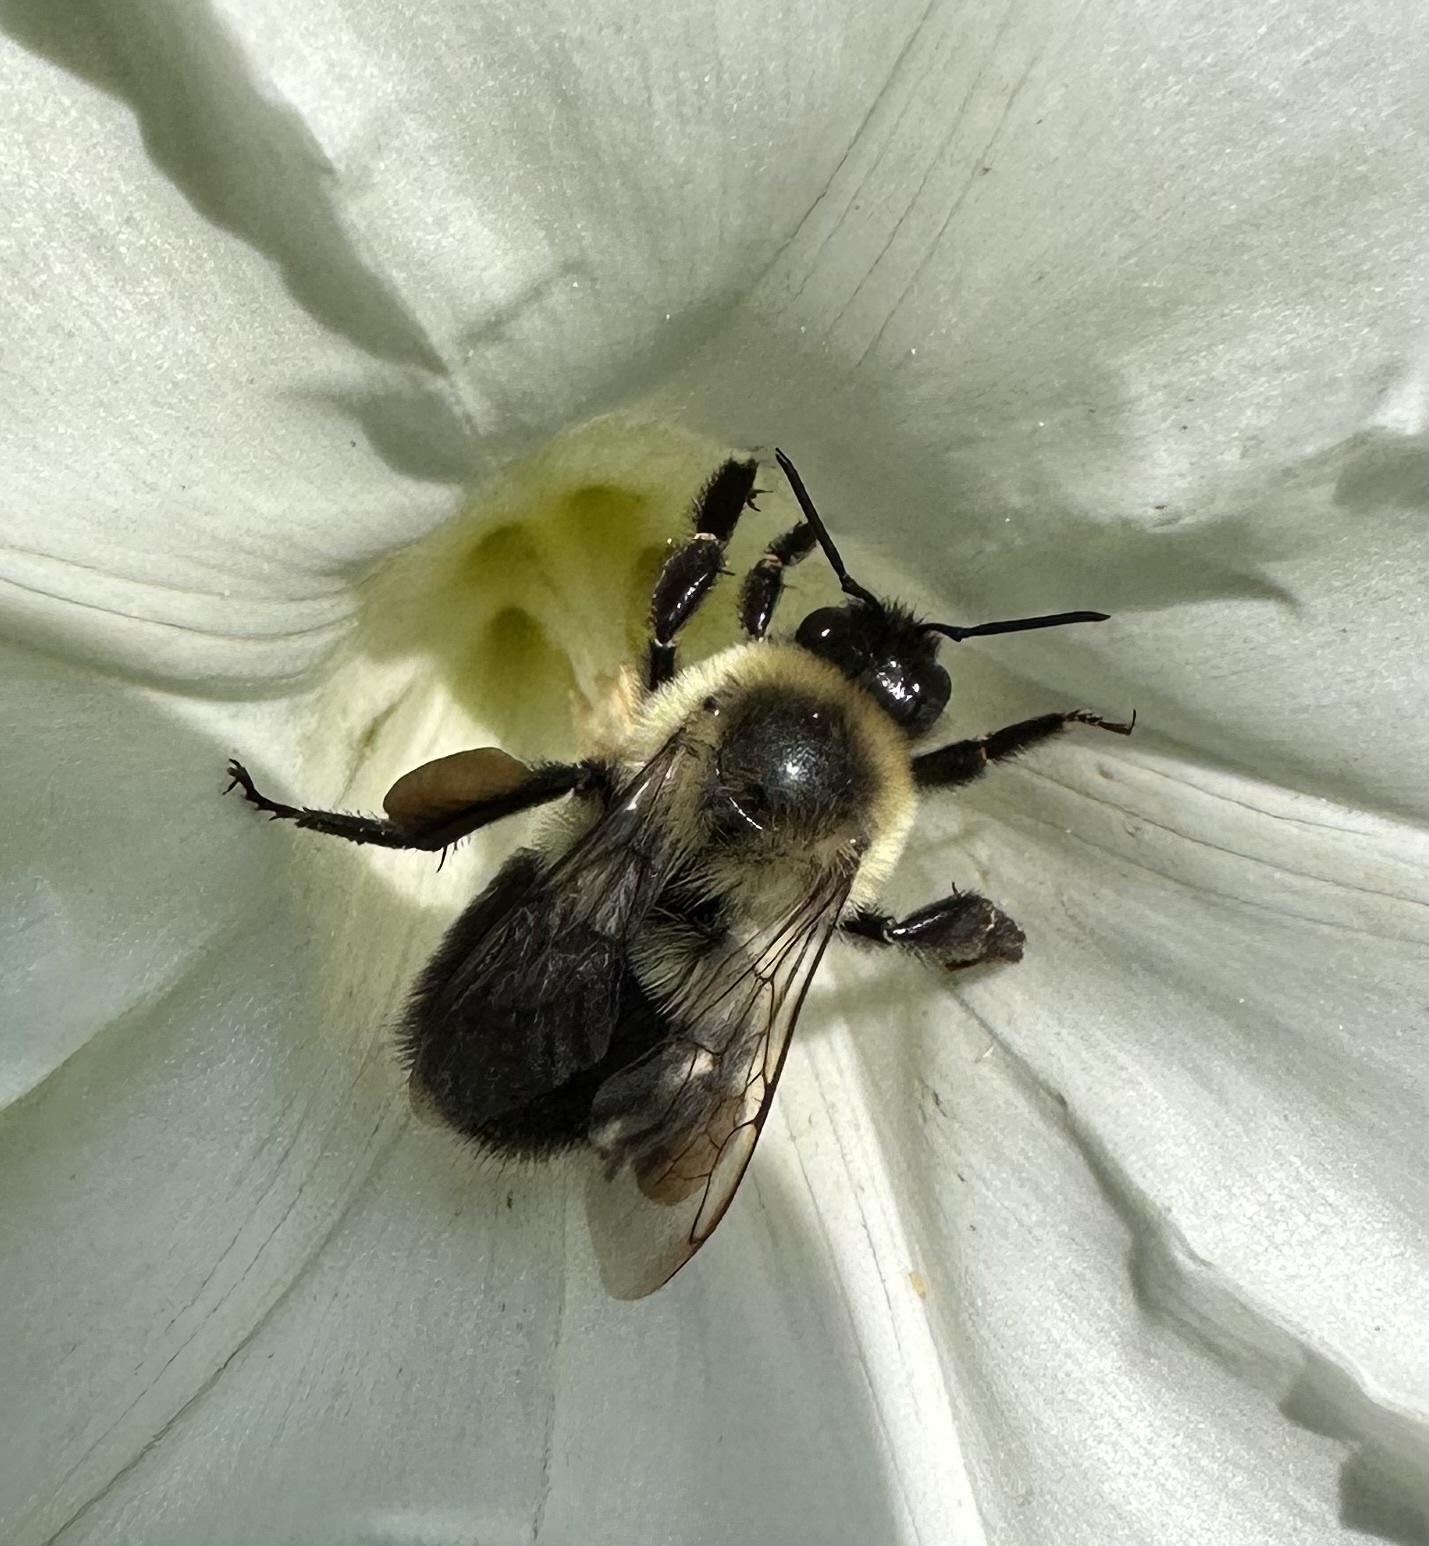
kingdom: Animalia
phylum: Arthropoda
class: Insecta
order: Hymenoptera
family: Apidae
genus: Bombus
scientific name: Bombus impatiens
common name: Common eastern bumble bee
